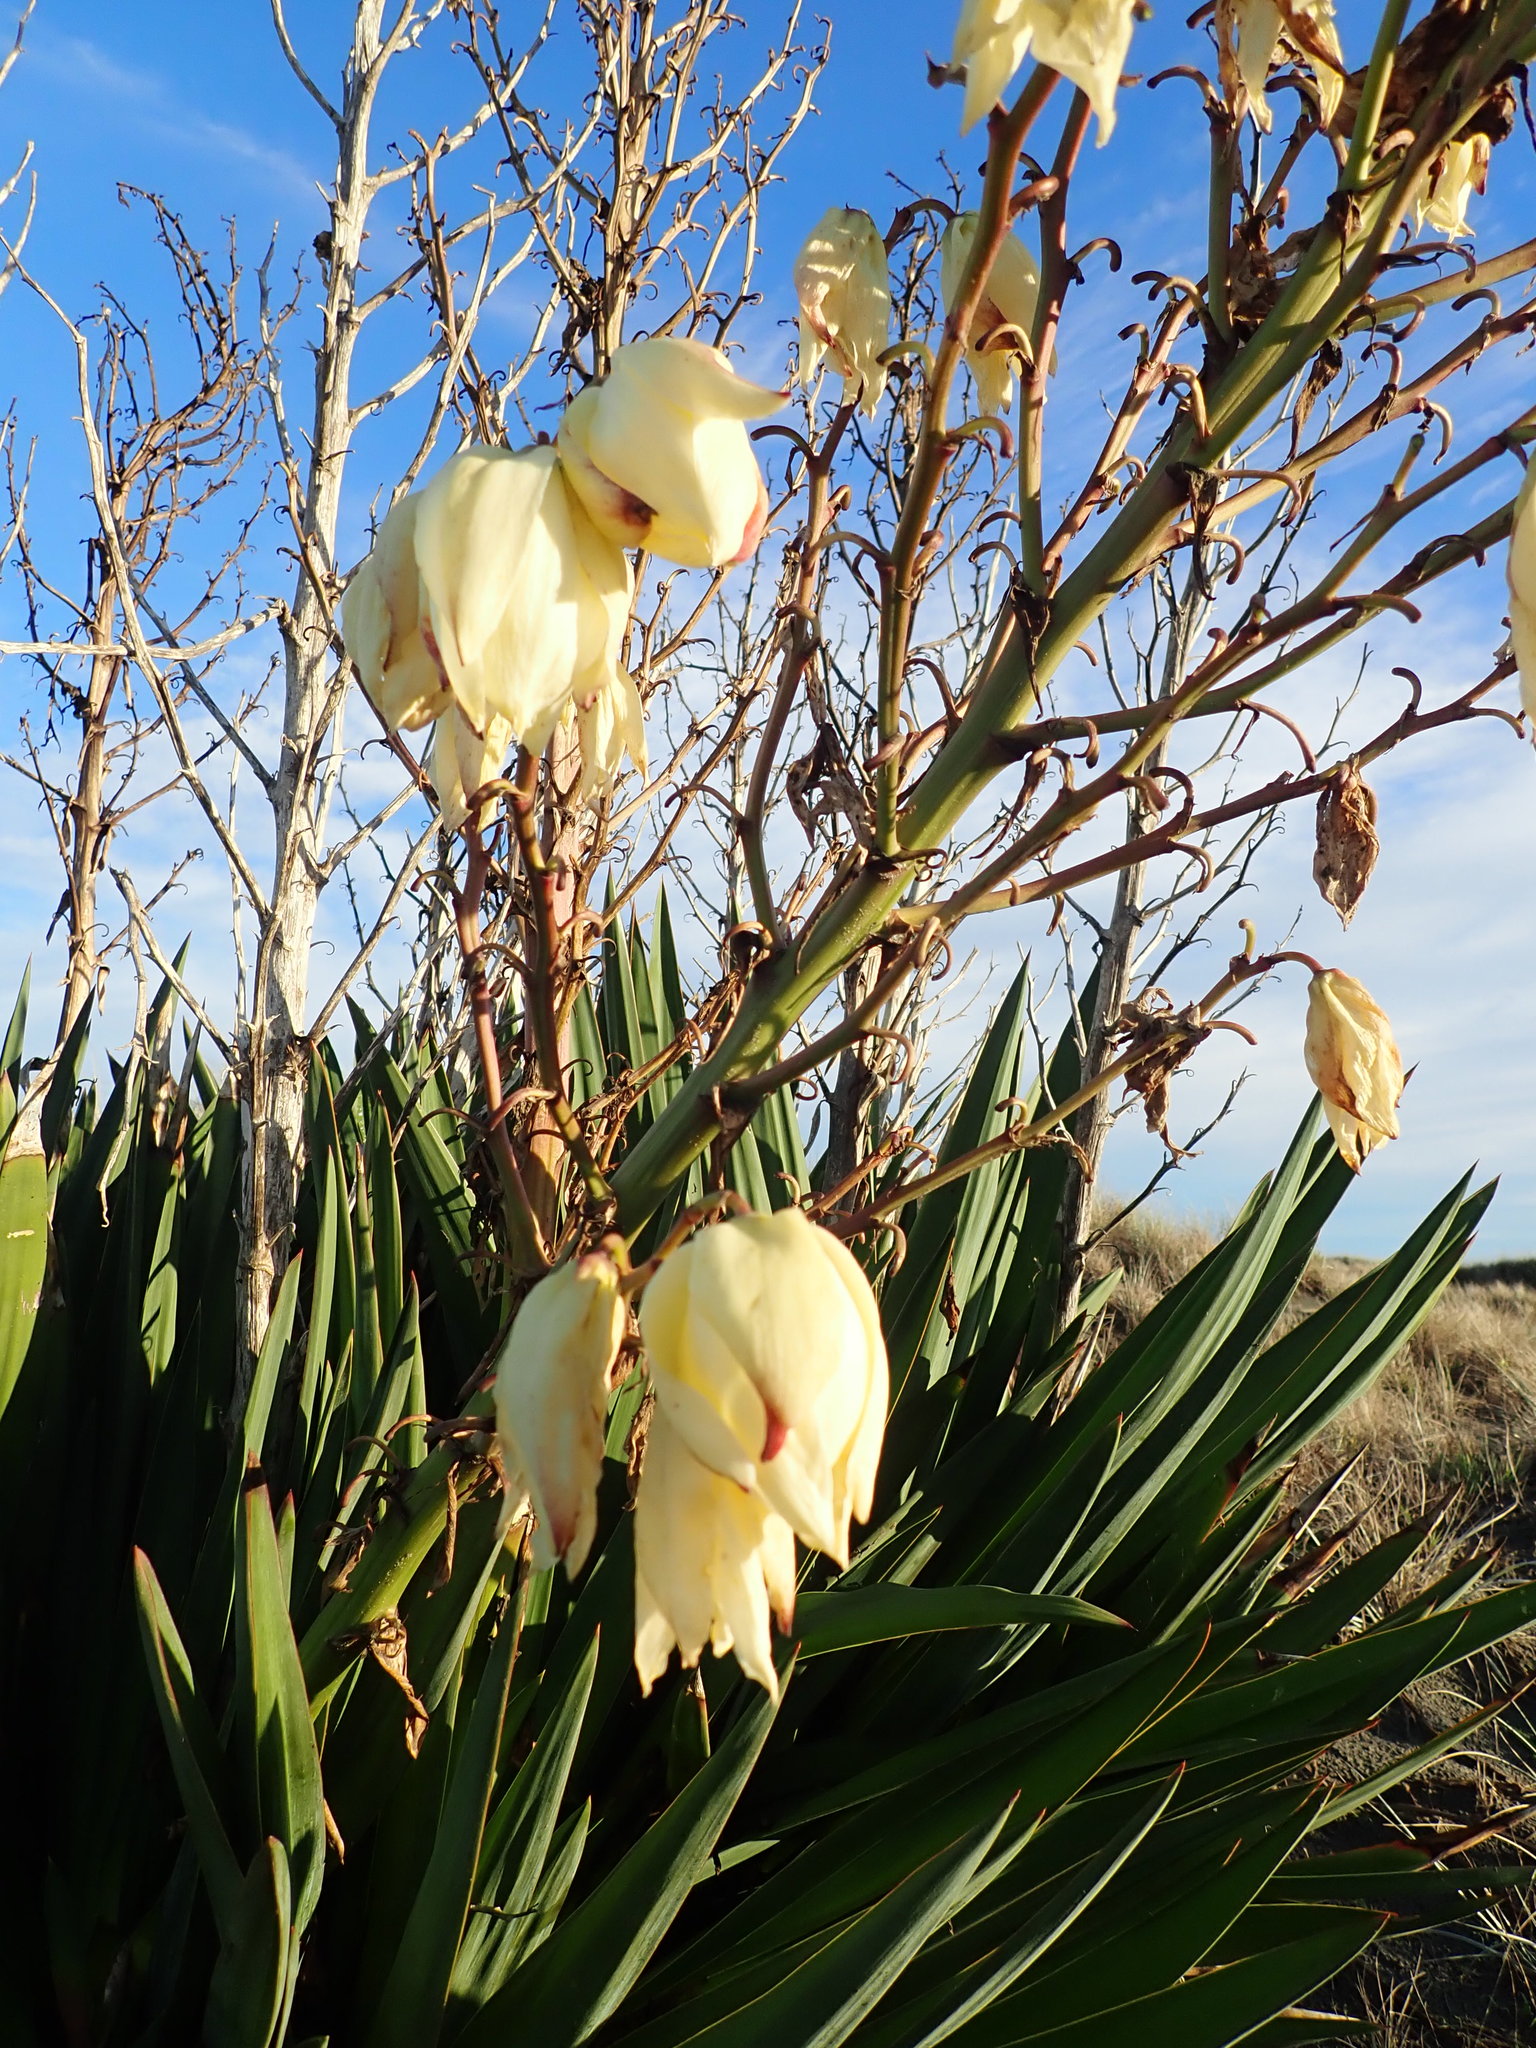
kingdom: Plantae
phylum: Tracheophyta
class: Liliopsida
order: Asparagales
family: Asparagaceae
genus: Yucca
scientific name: Yucca gloriosa
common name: Spanish-dagger
